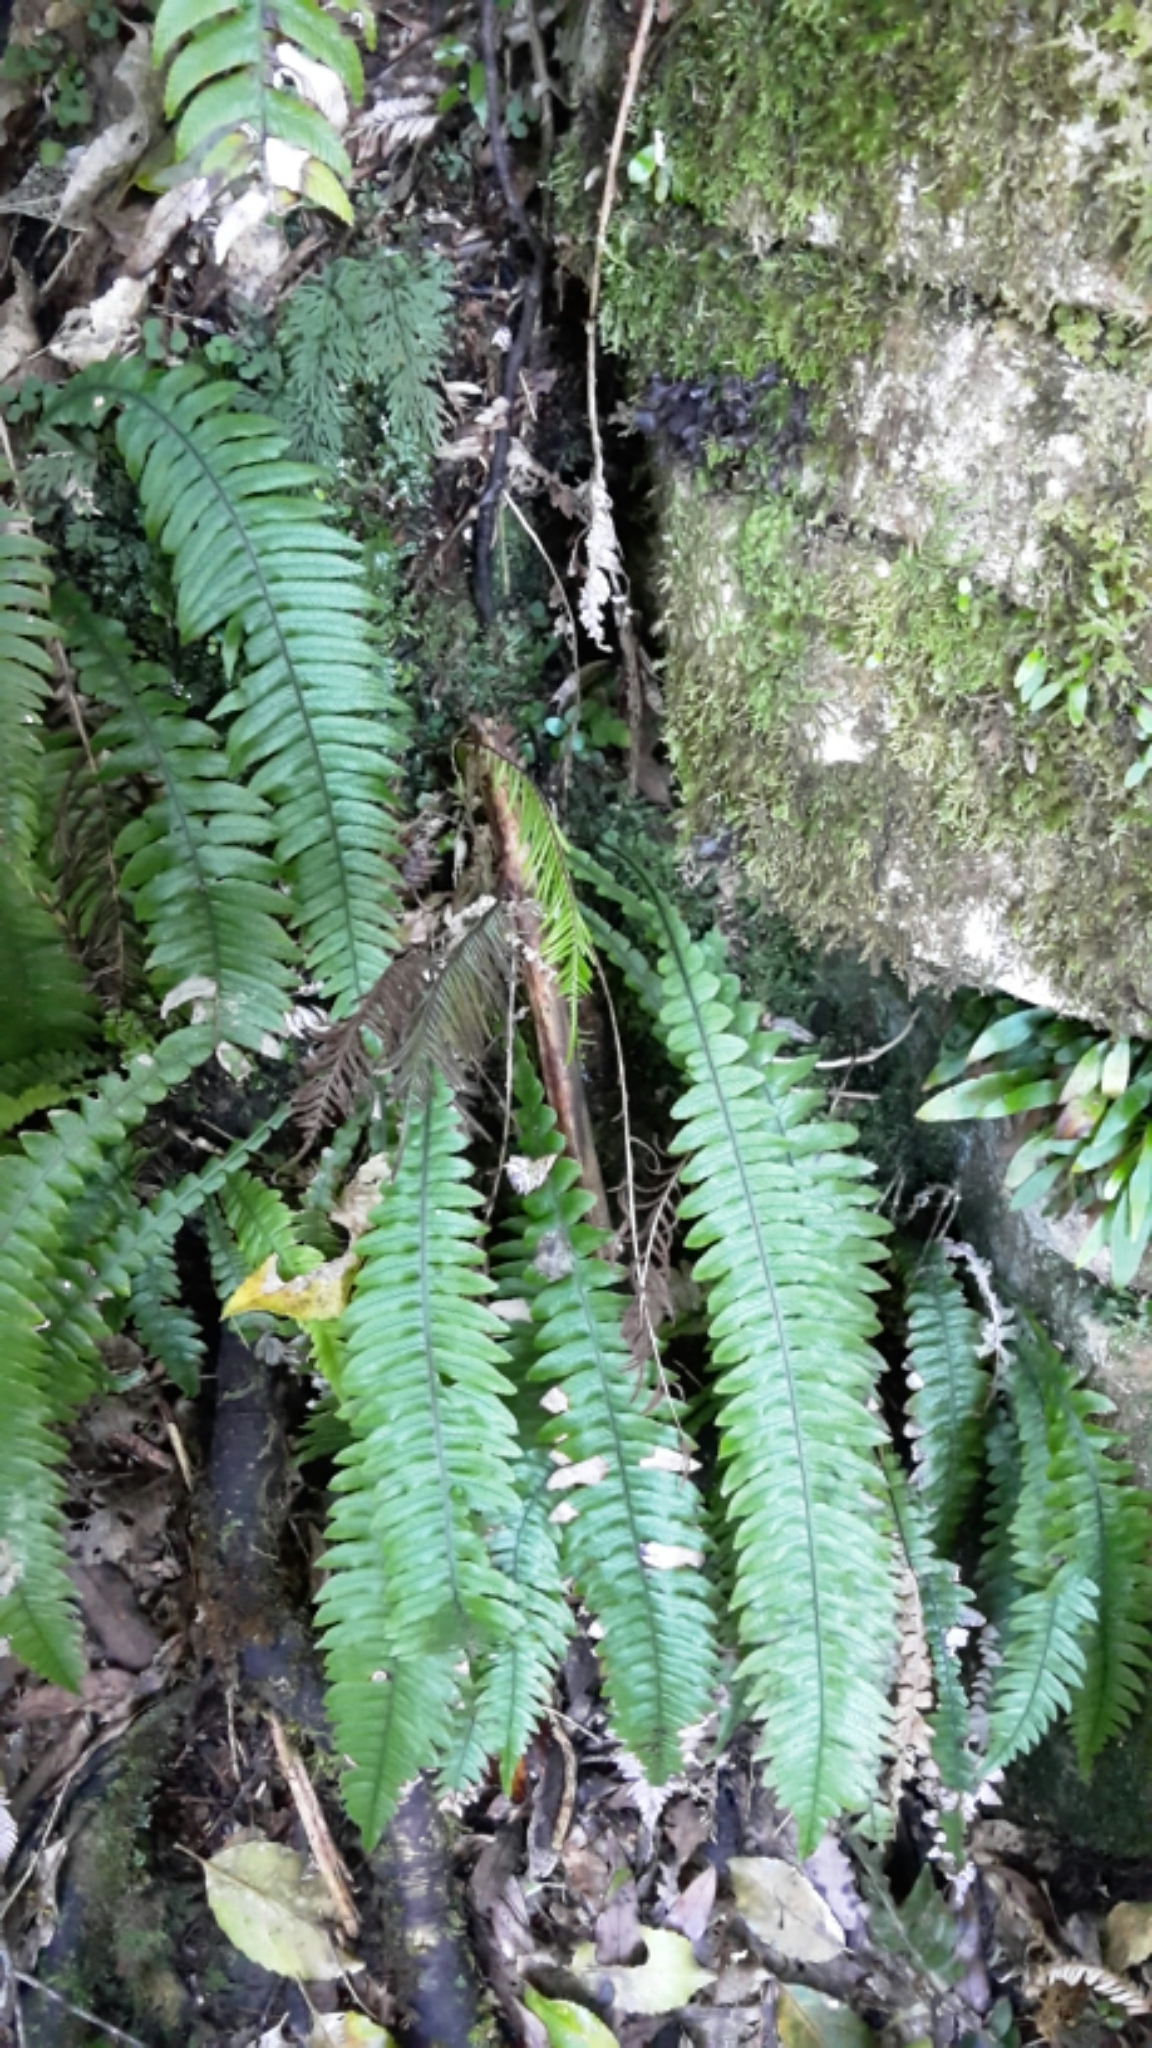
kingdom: Plantae
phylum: Tracheophyta
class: Polypodiopsida
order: Polypodiales
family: Blechnaceae
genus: Austroblechnum
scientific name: Austroblechnum lanceolatum
